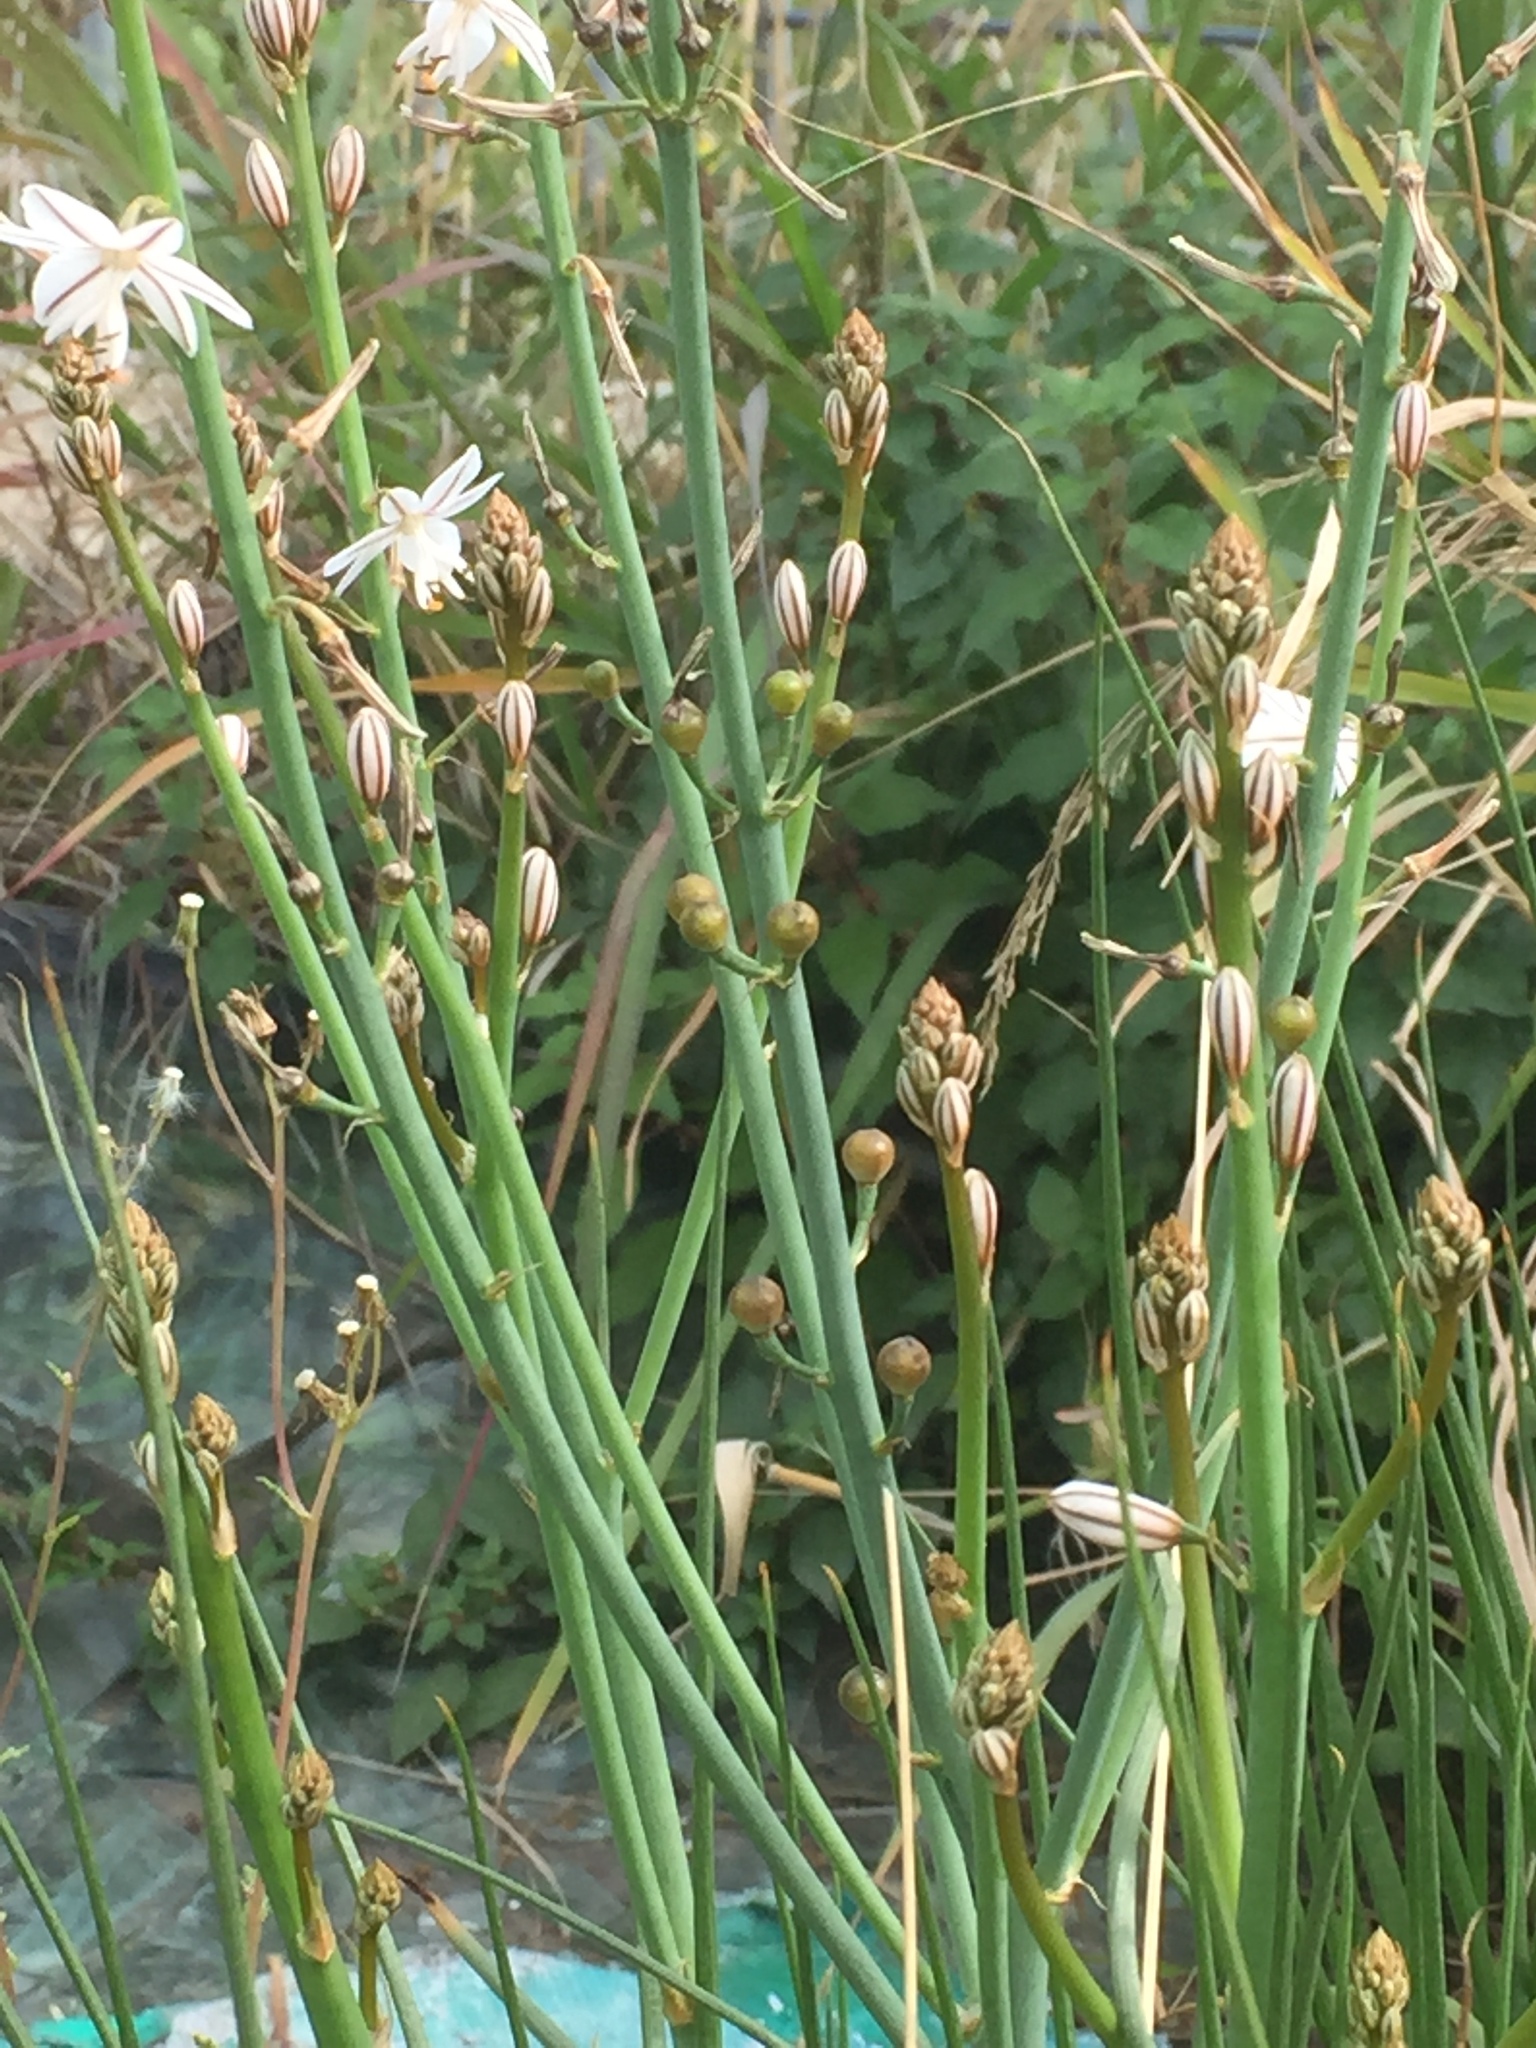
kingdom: Plantae
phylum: Tracheophyta
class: Liliopsida
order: Asparagales
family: Asphodelaceae
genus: Asphodelus
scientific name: Asphodelus fistulosus
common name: Onionweed
